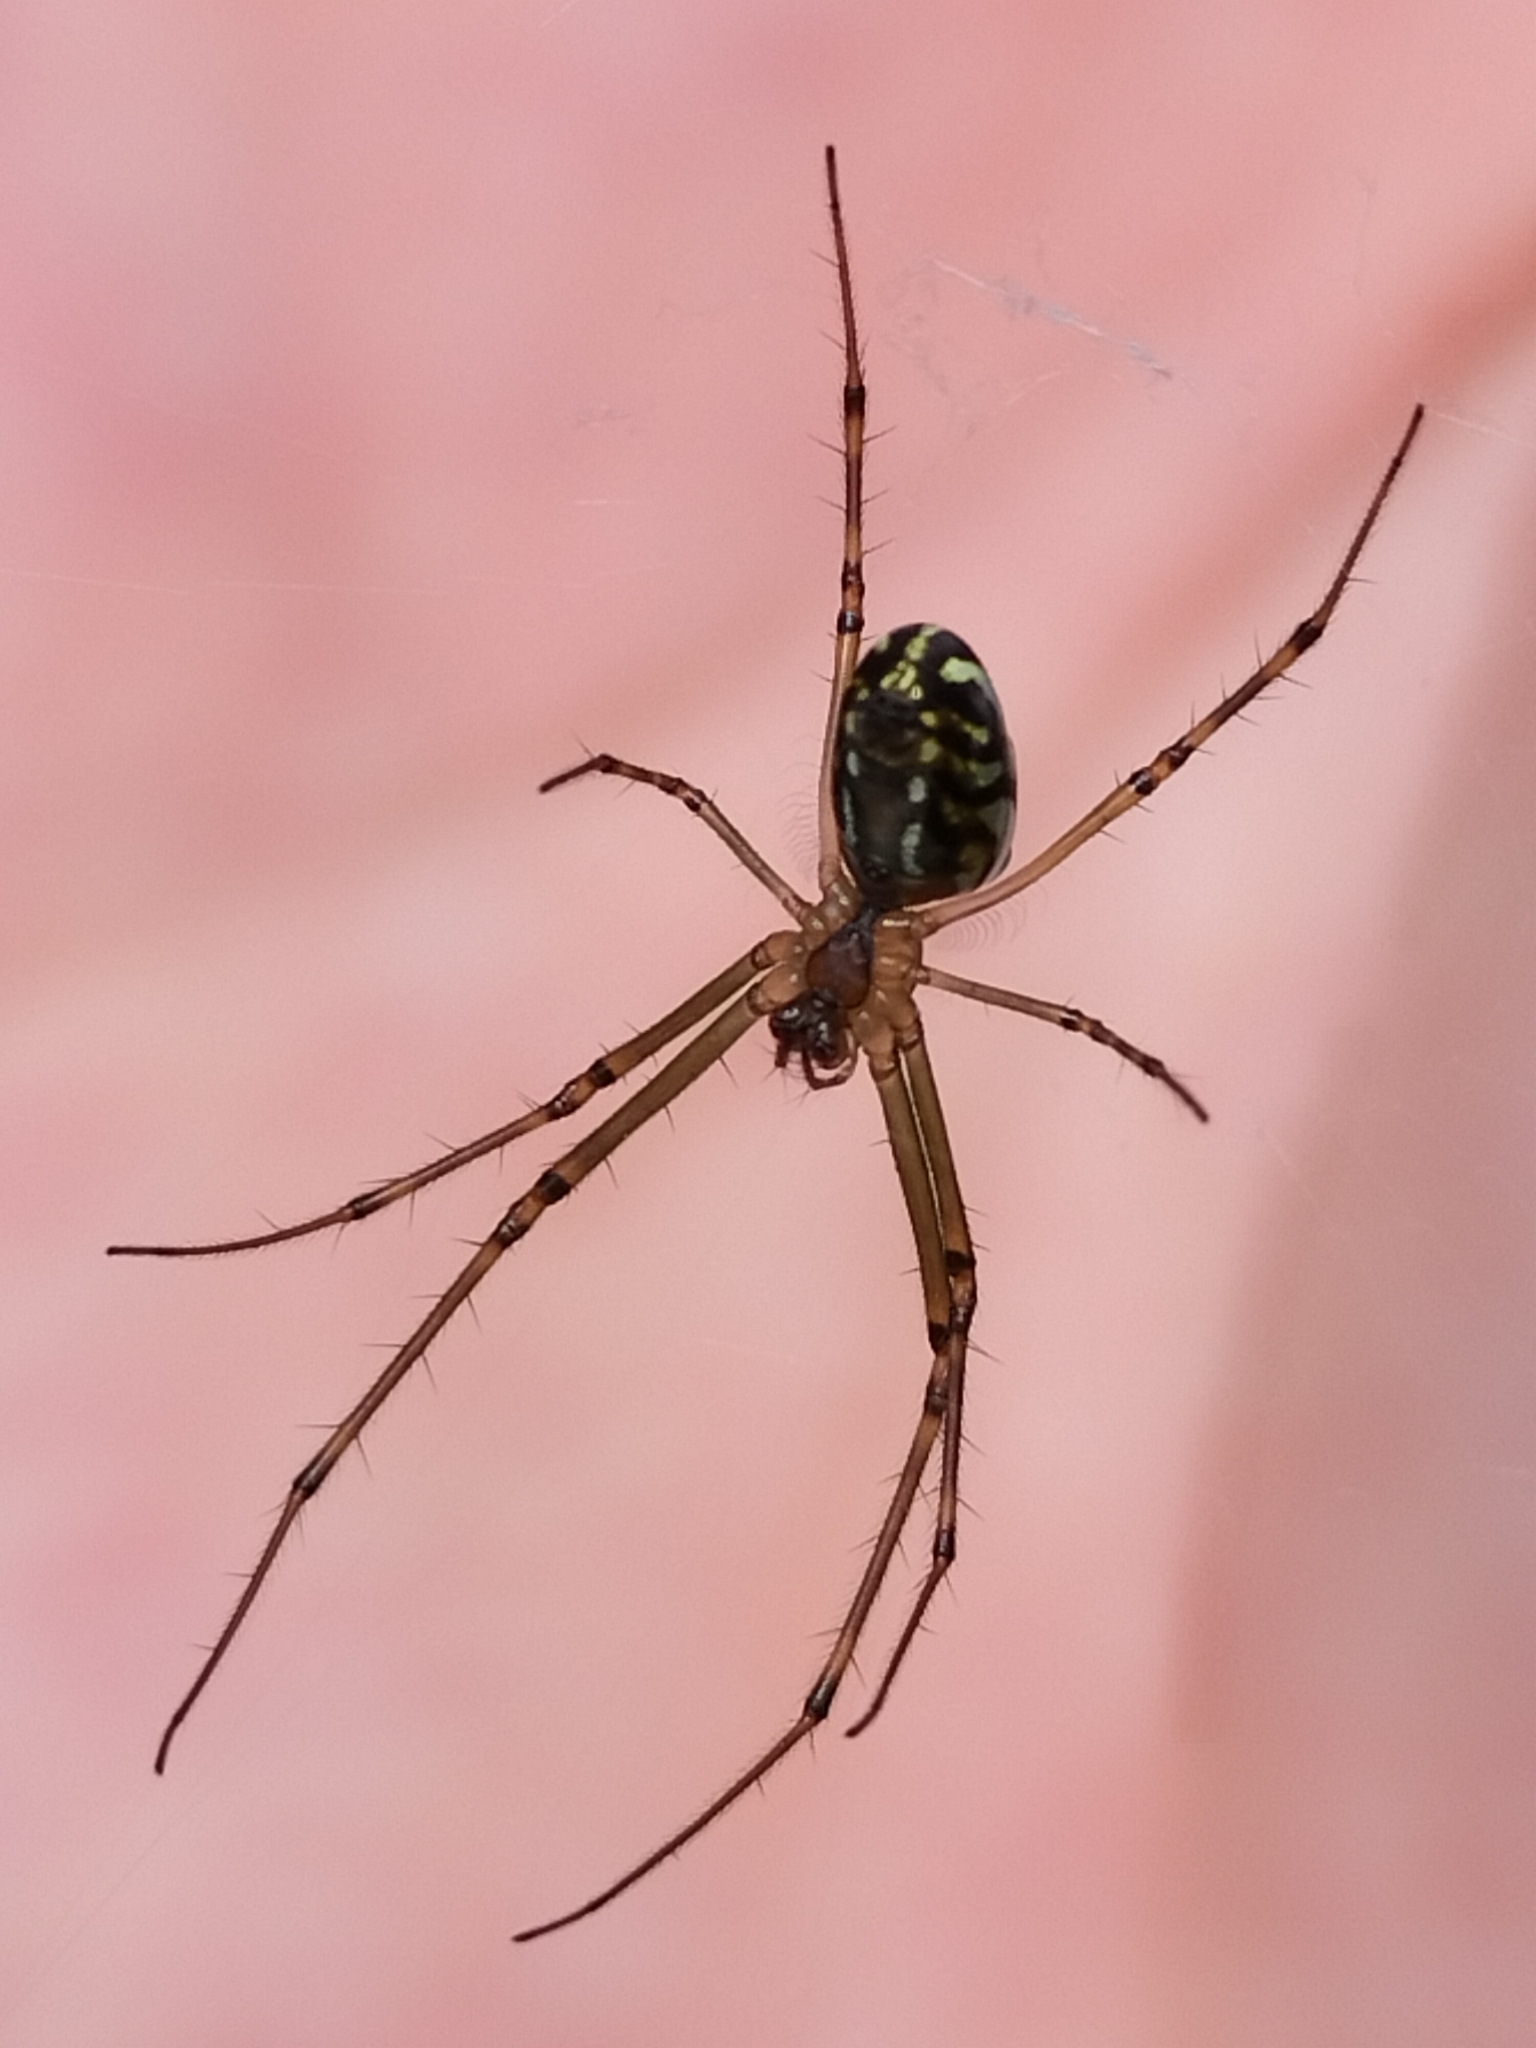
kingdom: Animalia
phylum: Arthropoda
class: Arachnida
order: Araneae
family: Tetragnathidae
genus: Leucauge
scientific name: Leucauge dromedaria
